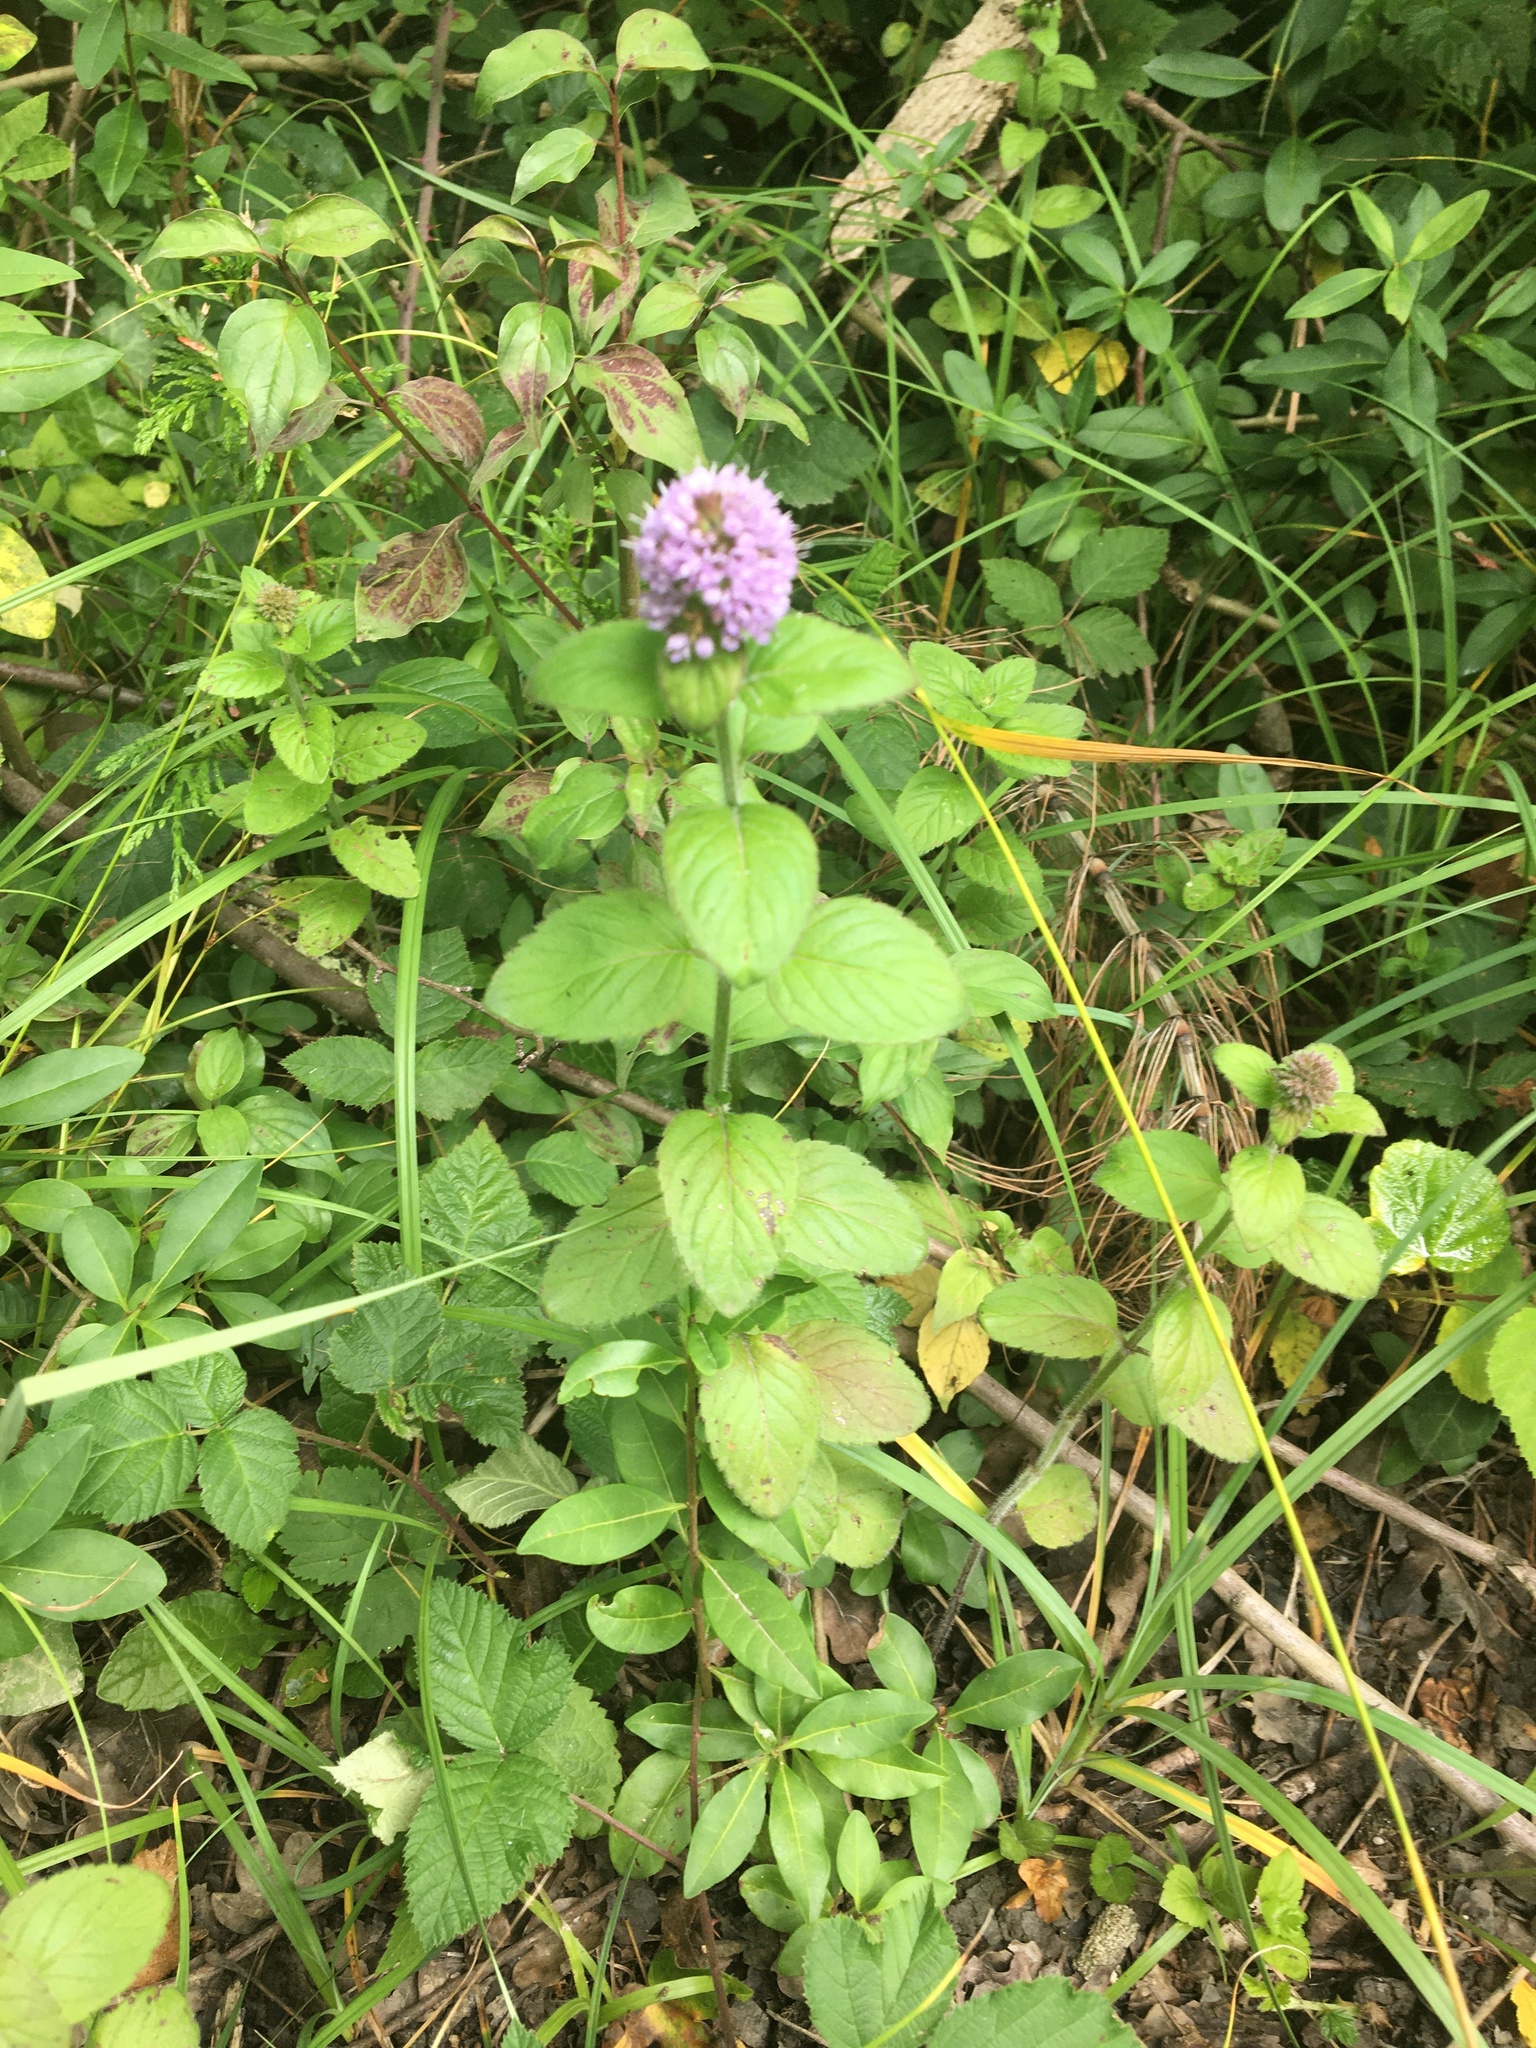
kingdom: Plantae
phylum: Tracheophyta
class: Magnoliopsida
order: Lamiales
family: Lamiaceae
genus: Mentha
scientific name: Mentha aquatica
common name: Water mint
